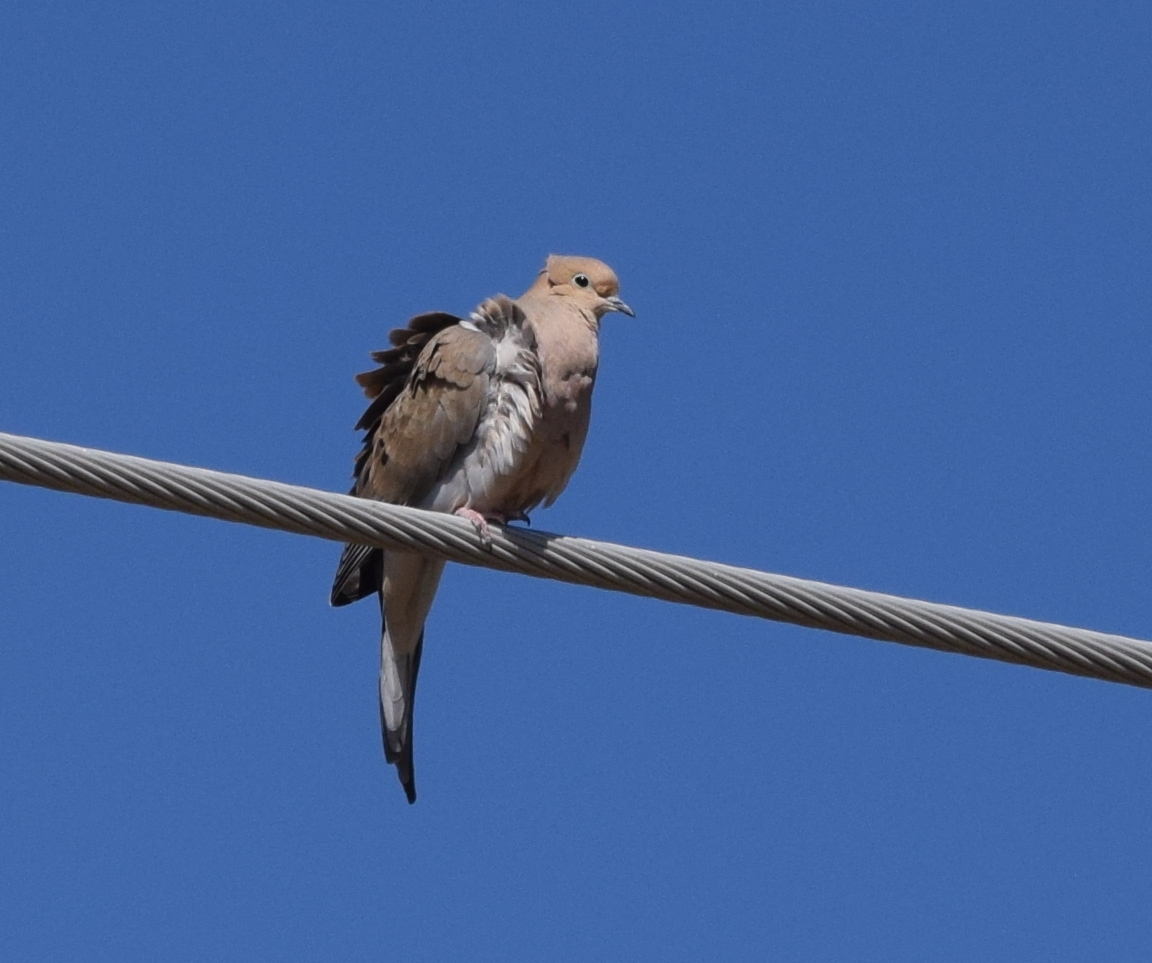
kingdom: Animalia
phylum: Chordata
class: Aves
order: Columbiformes
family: Columbidae
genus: Zenaida
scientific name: Zenaida macroura
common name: Mourning dove
